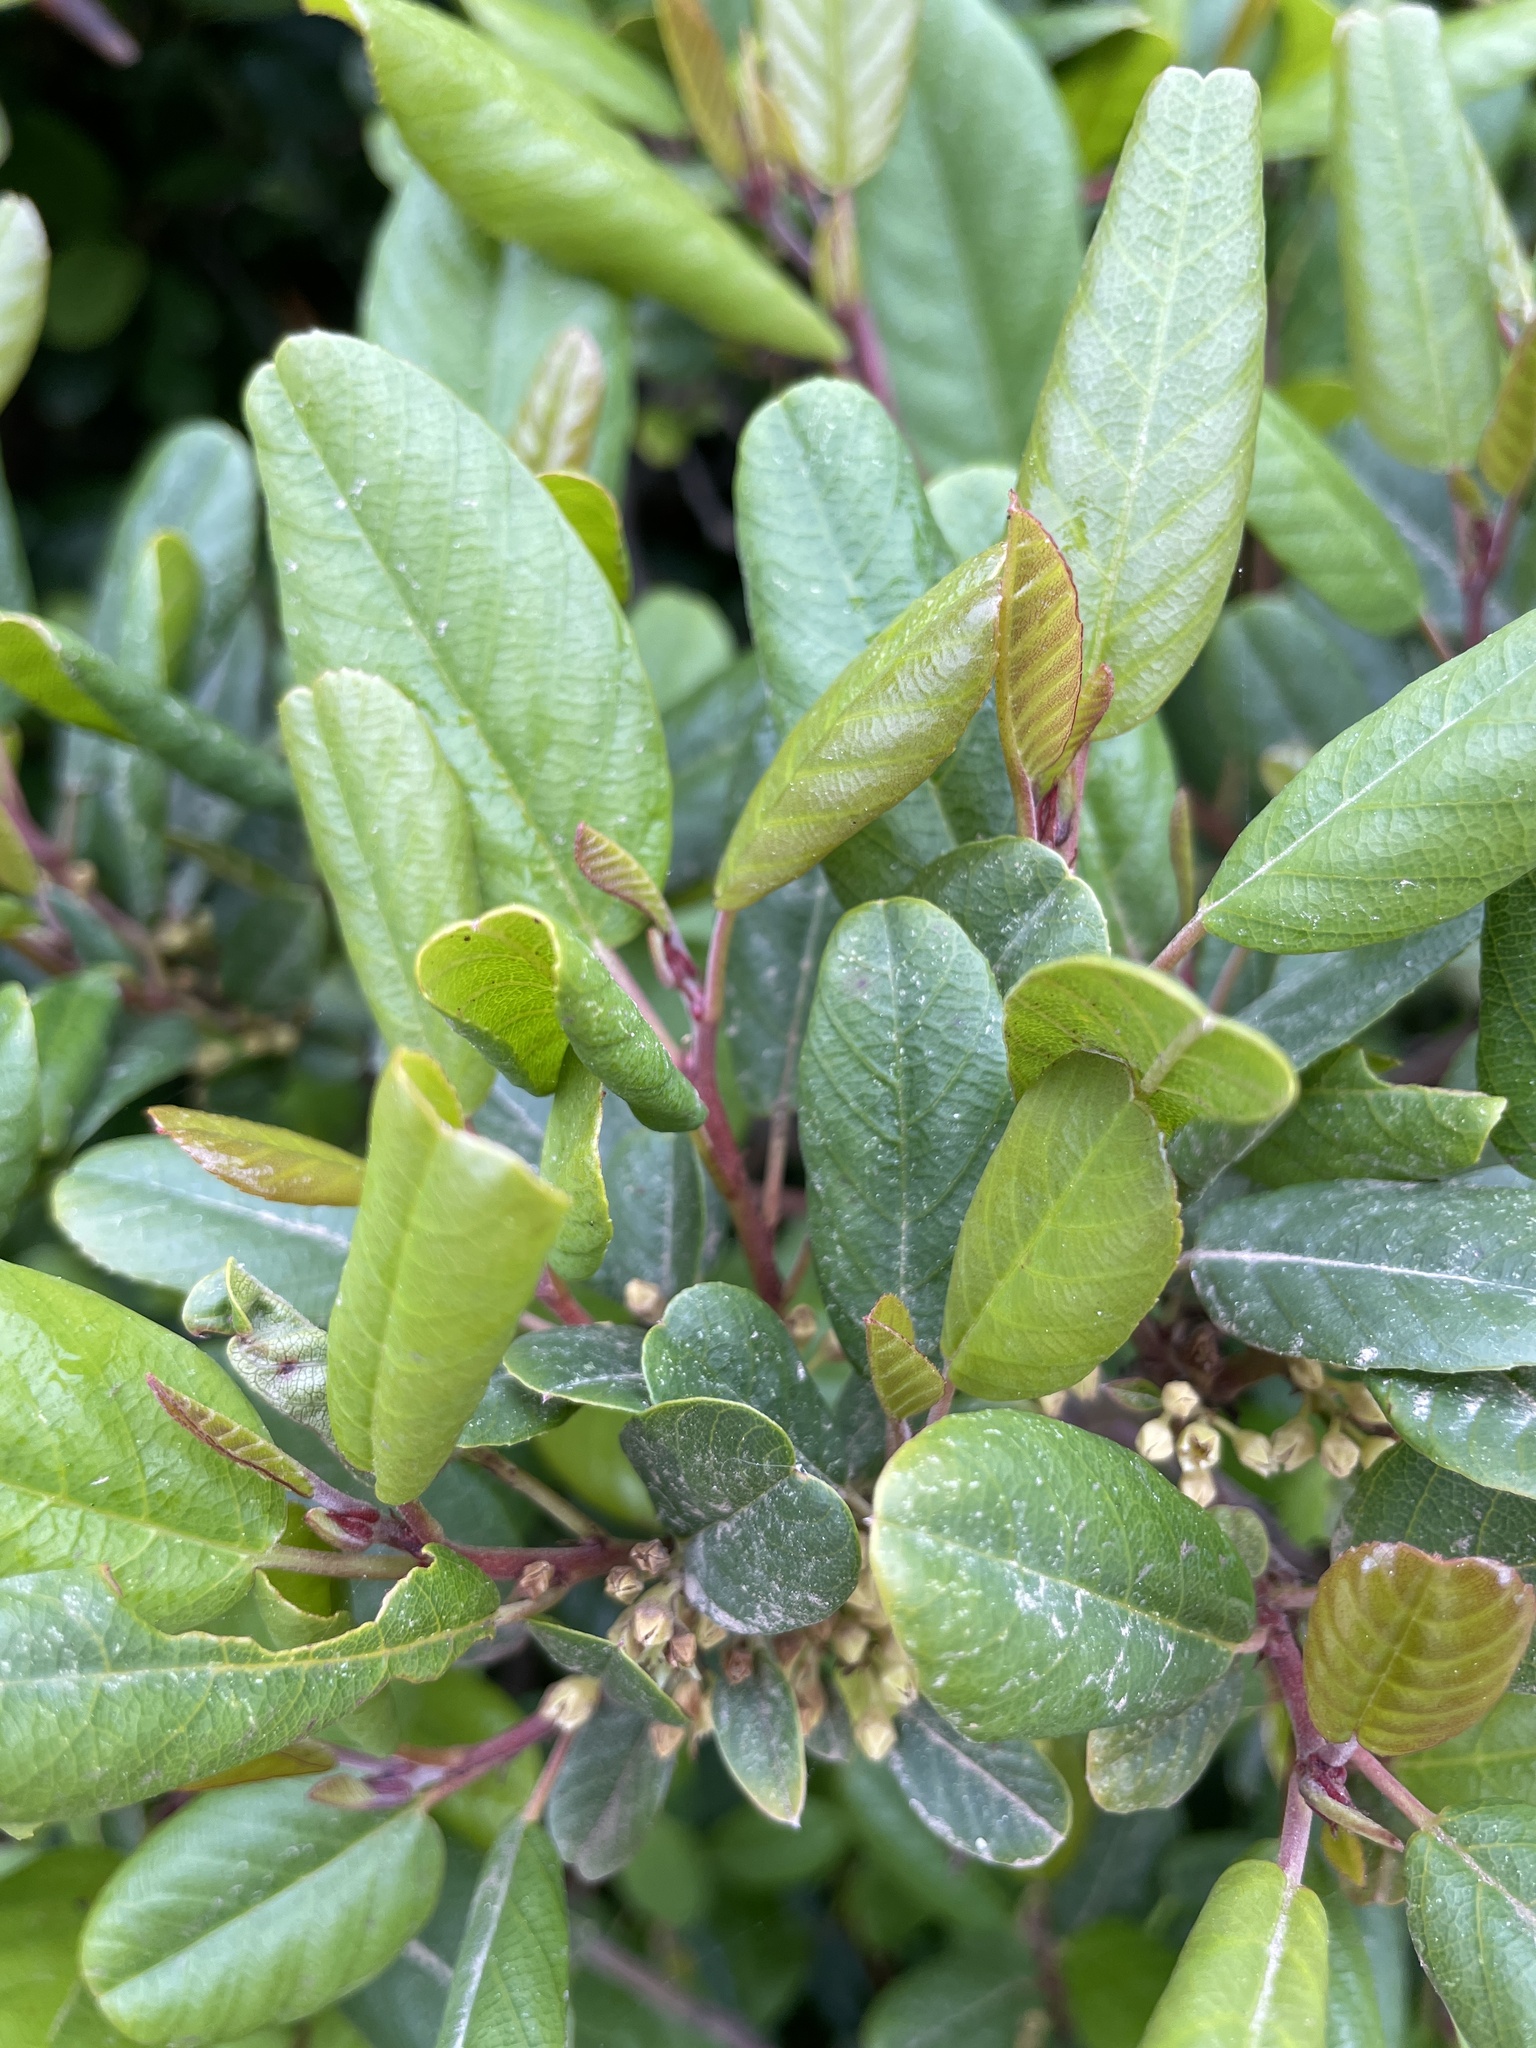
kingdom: Plantae
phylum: Tracheophyta
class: Magnoliopsida
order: Rosales
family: Rhamnaceae
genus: Frangula
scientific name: Frangula californica
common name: California buckthorn
